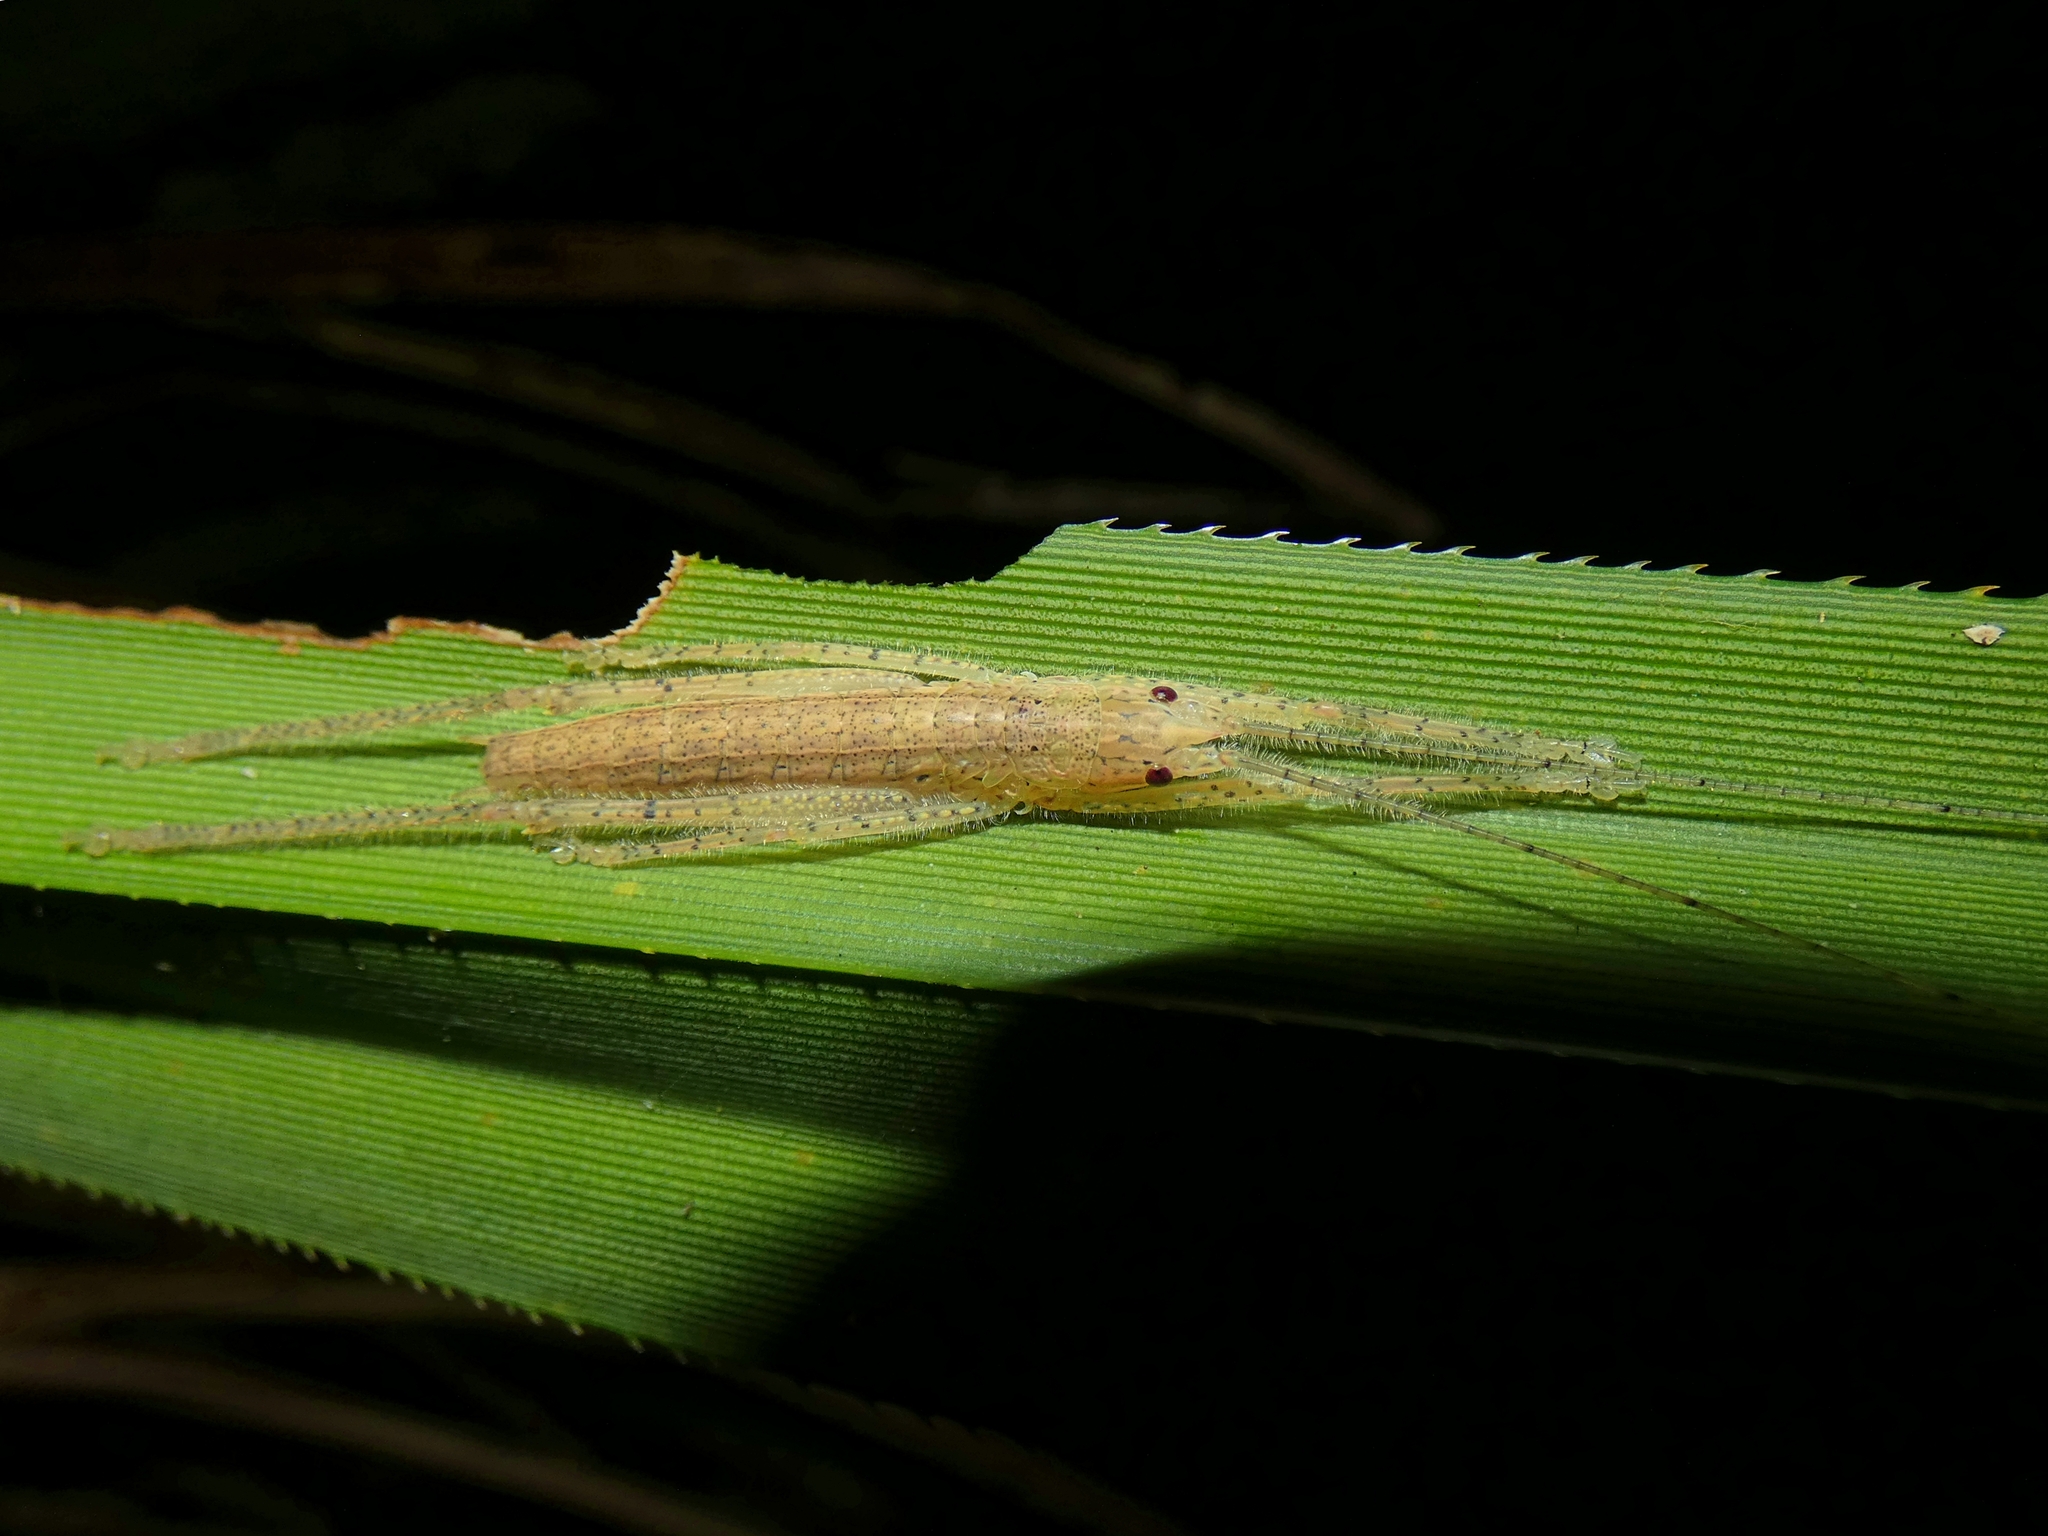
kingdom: Animalia
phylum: Arthropoda
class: Insecta
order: Orthoptera
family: Tettigoniidae
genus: Segestidea
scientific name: Segestidea queenslandica
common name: Queensland palm katydid
